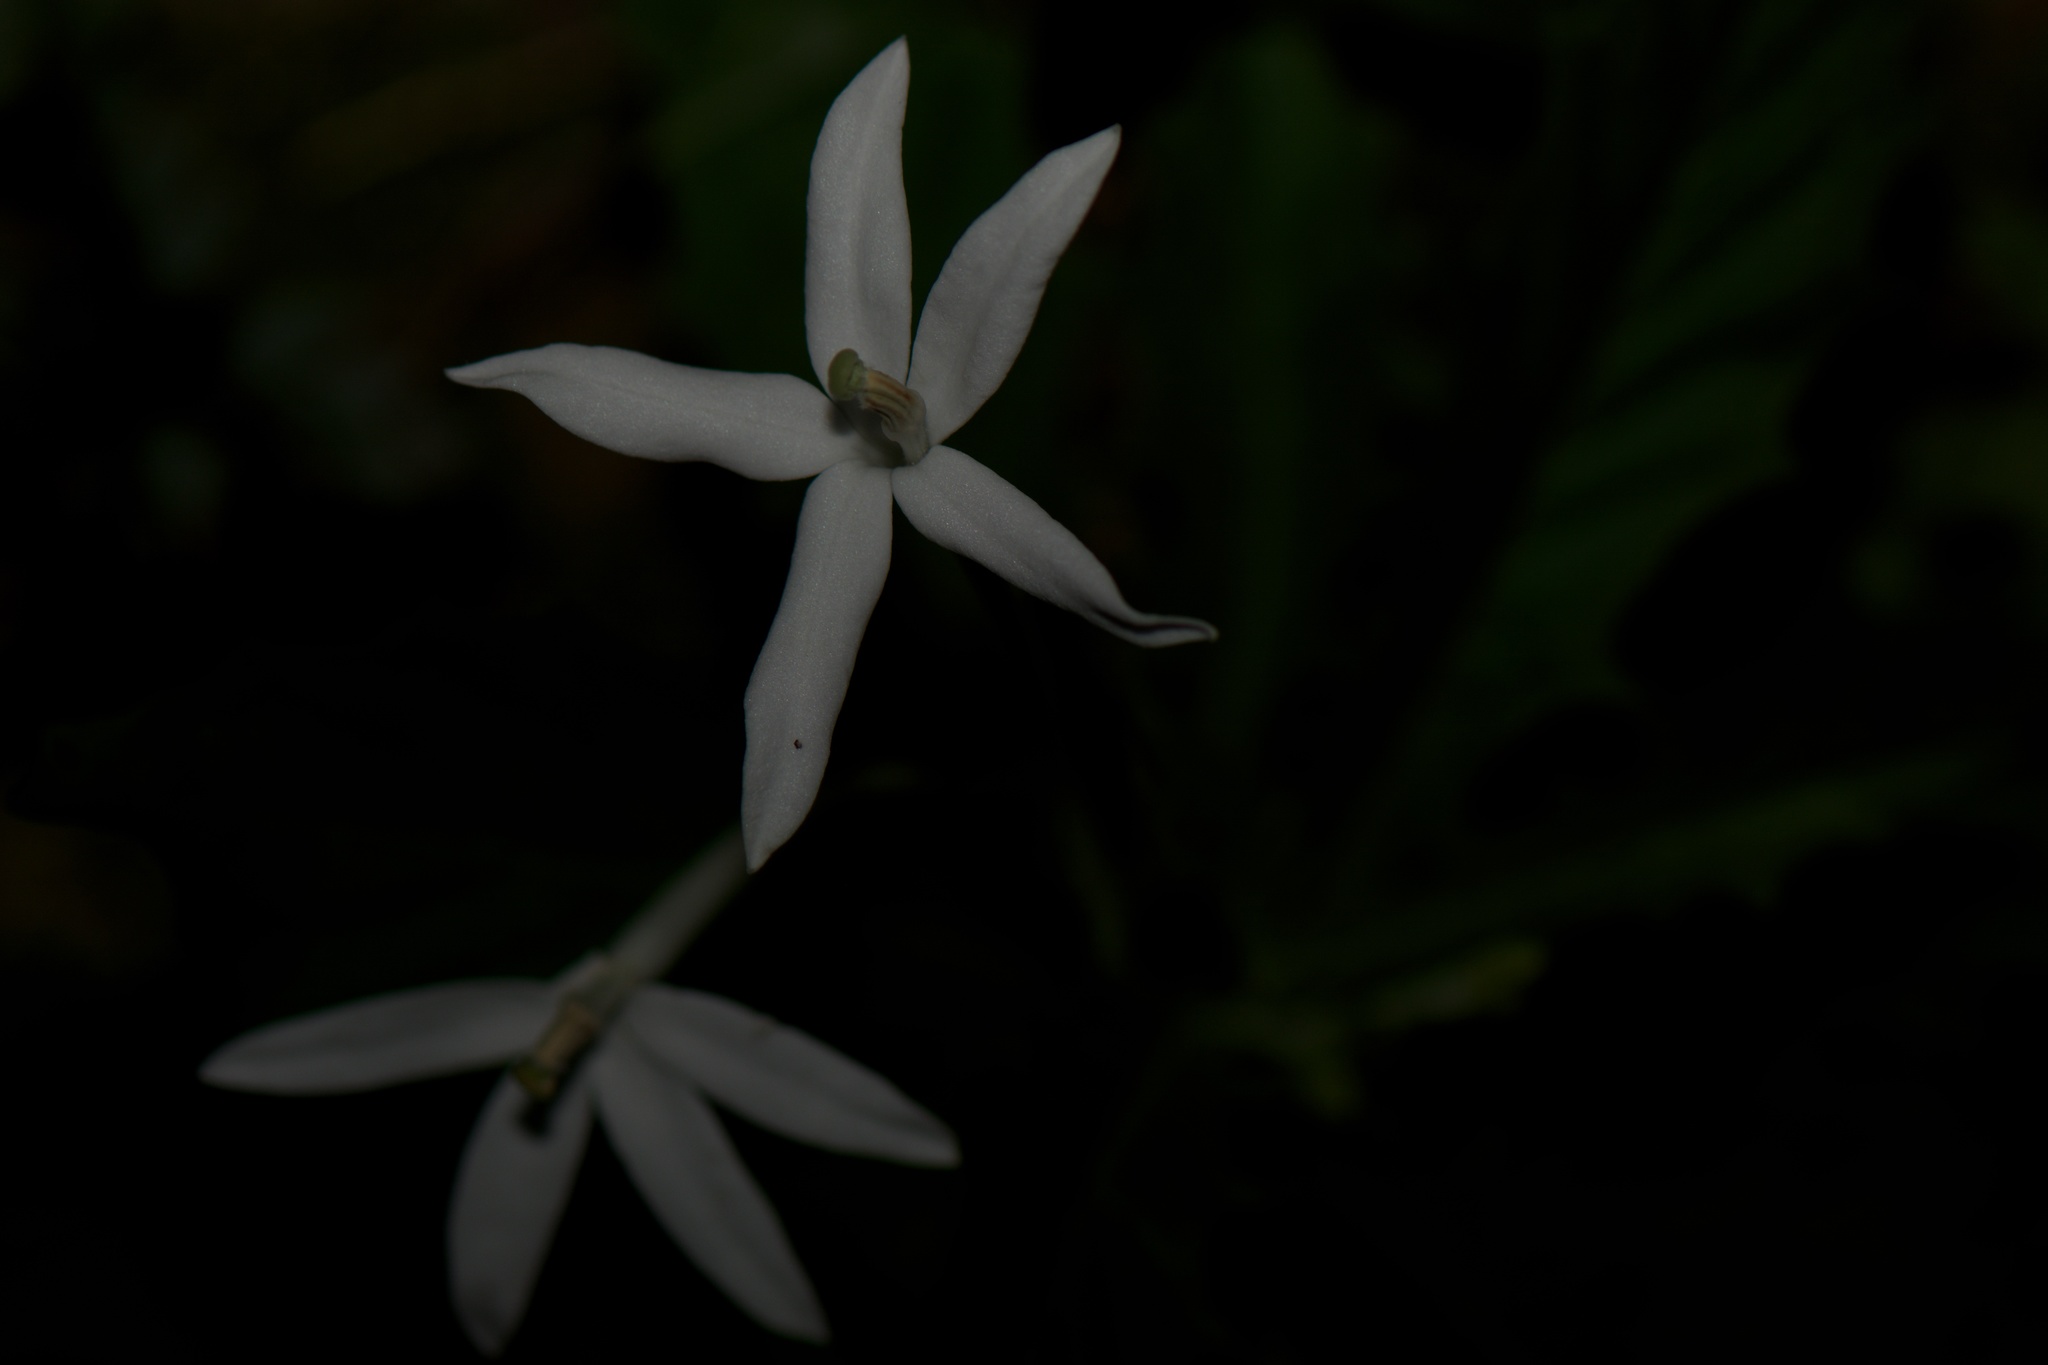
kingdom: Plantae
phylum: Tracheophyta
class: Magnoliopsida
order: Asterales
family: Campanulaceae
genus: Hippobroma
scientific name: Hippobroma longiflora
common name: Madamfate
